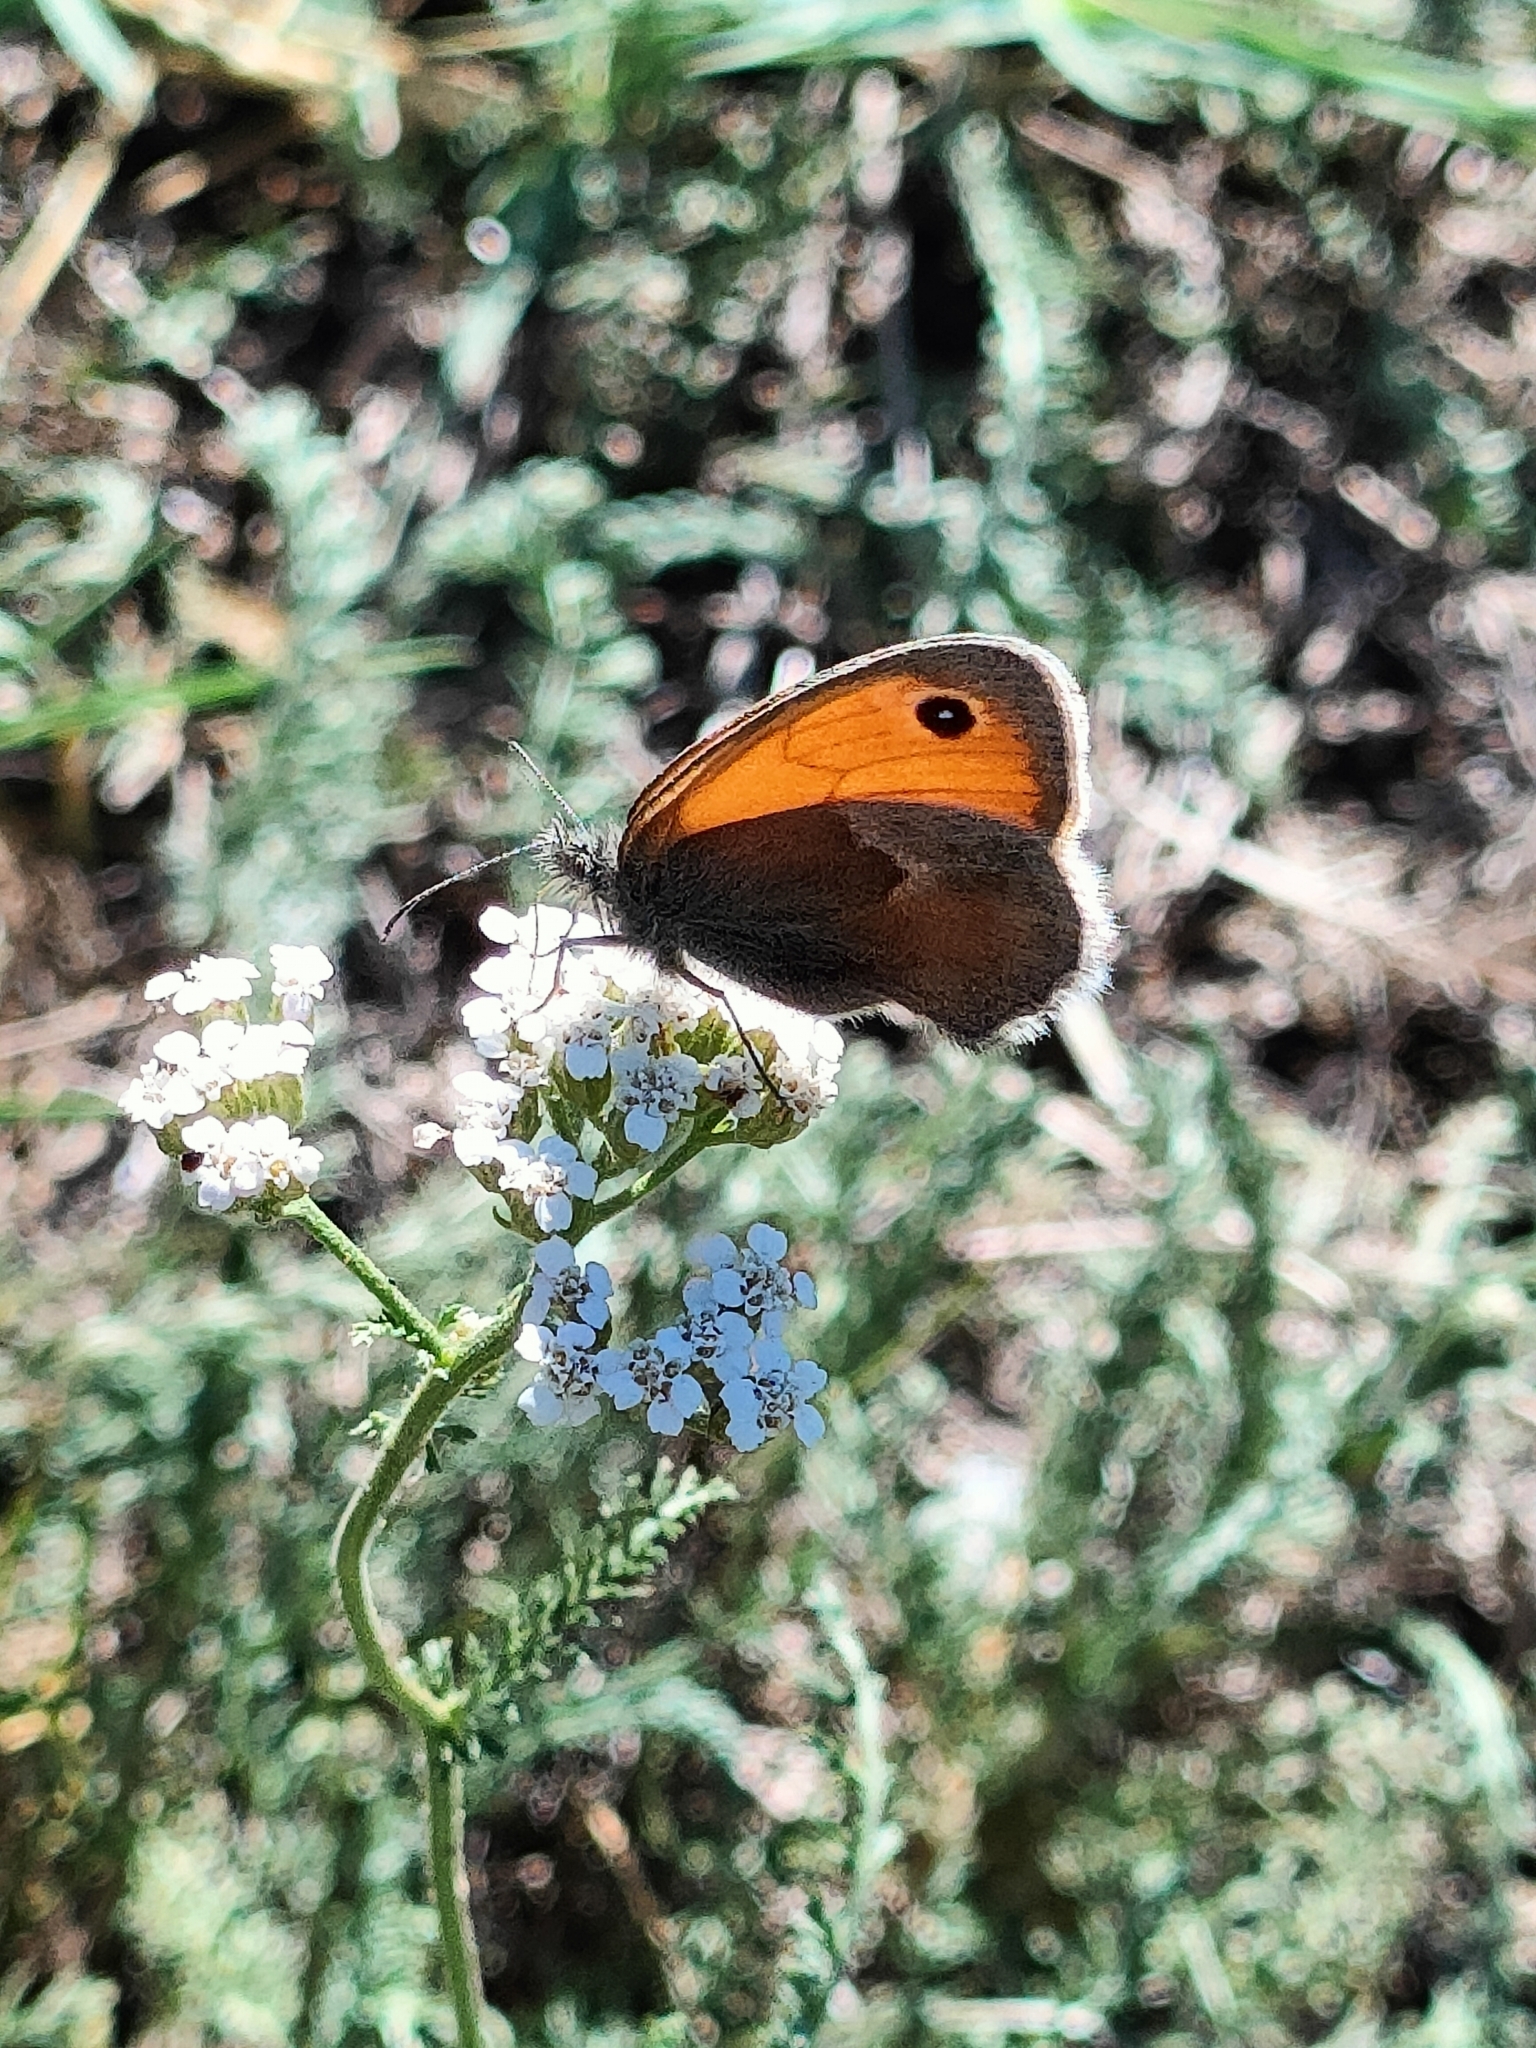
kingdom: Animalia
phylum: Arthropoda
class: Insecta
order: Lepidoptera
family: Nymphalidae
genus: Coenonympha
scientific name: Coenonympha pamphilus
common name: Small heath
